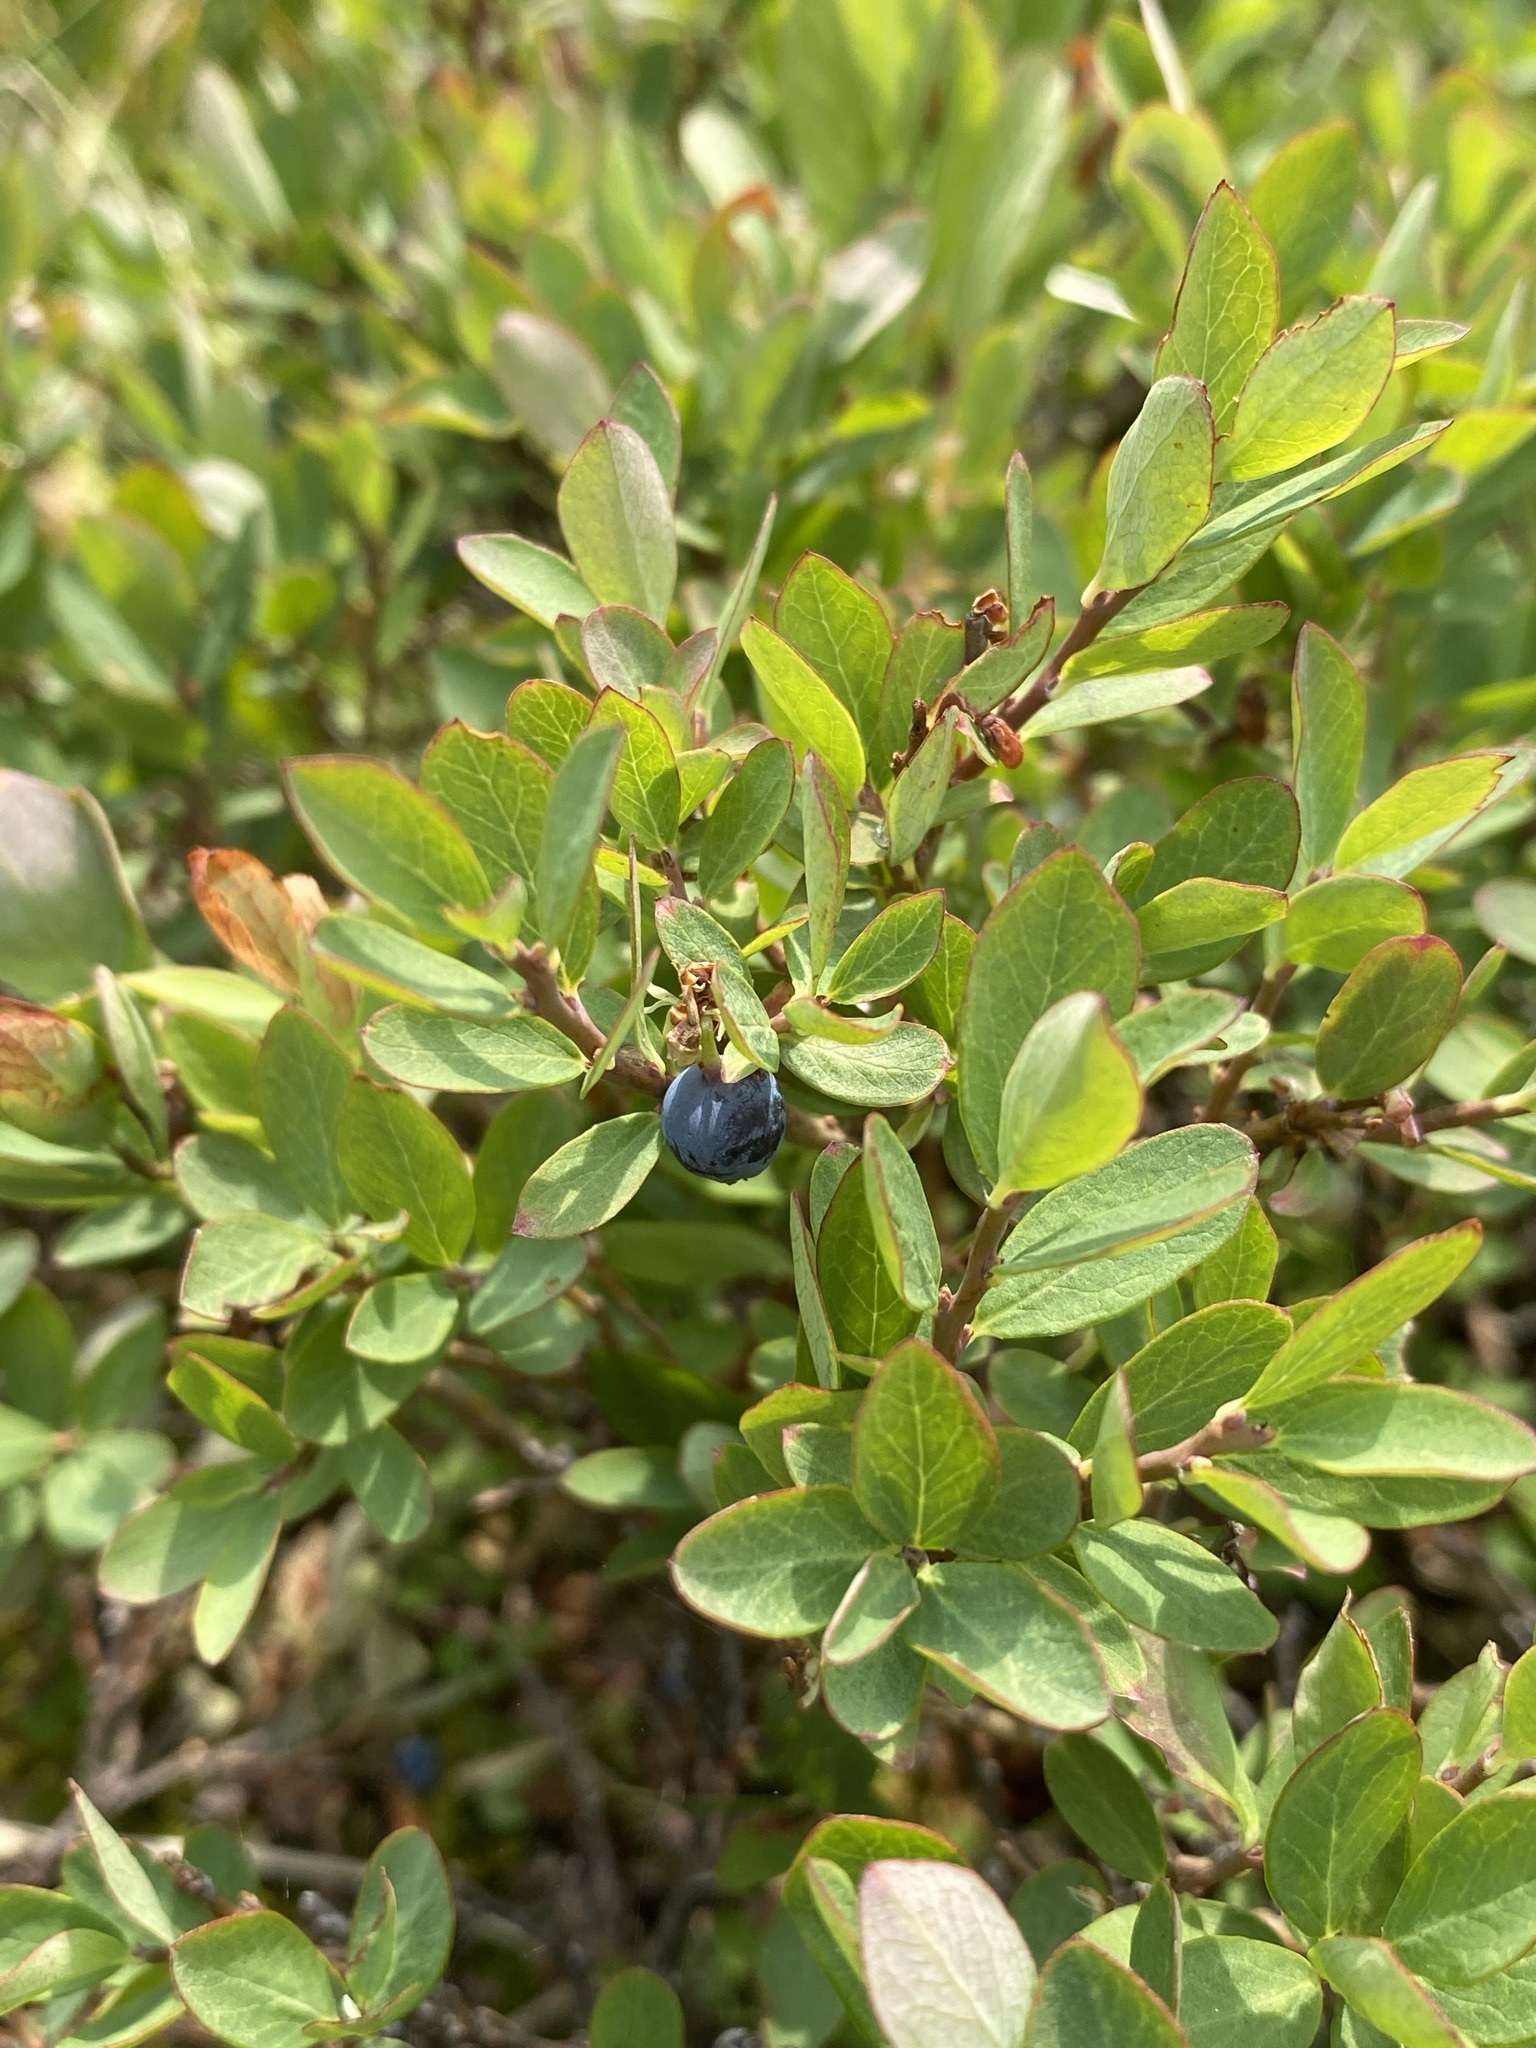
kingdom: Plantae
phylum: Tracheophyta
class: Magnoliopsida
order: Ericales
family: Ericaceae
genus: Vaccinium
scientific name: Vaccinium uliginosum
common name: Bog bilberry
